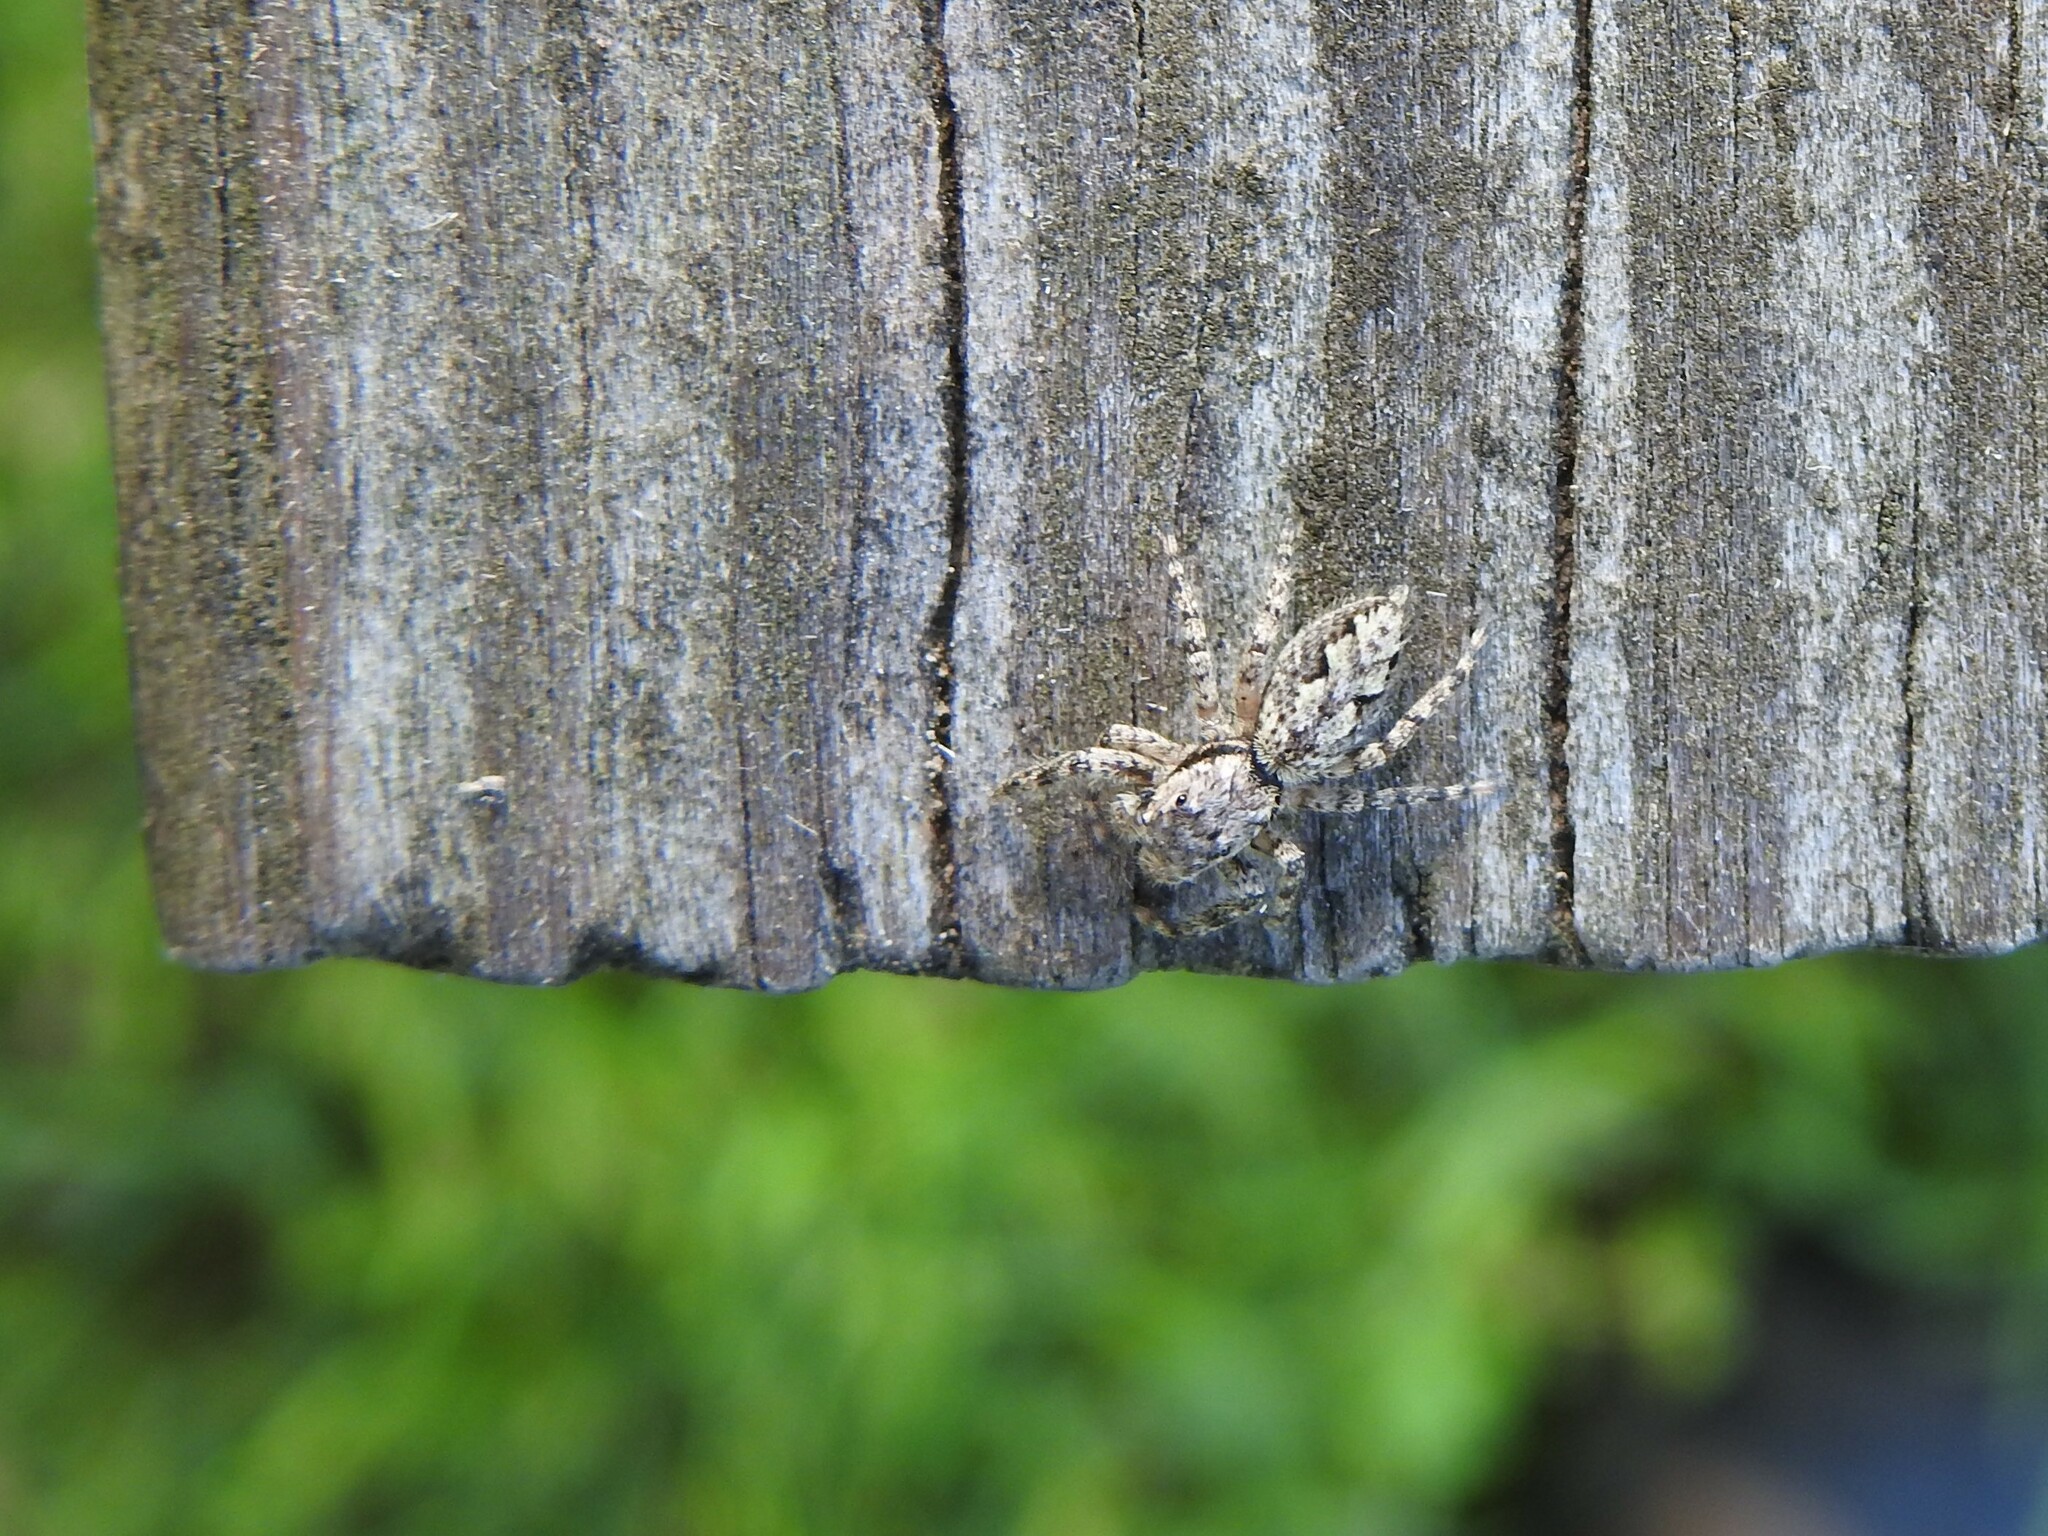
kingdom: Animalia
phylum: Arthropoda
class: Arachnida
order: Araneae
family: Salticidae
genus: Platycryptus
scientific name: Platycryptus undatus
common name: Tan jumping spider
